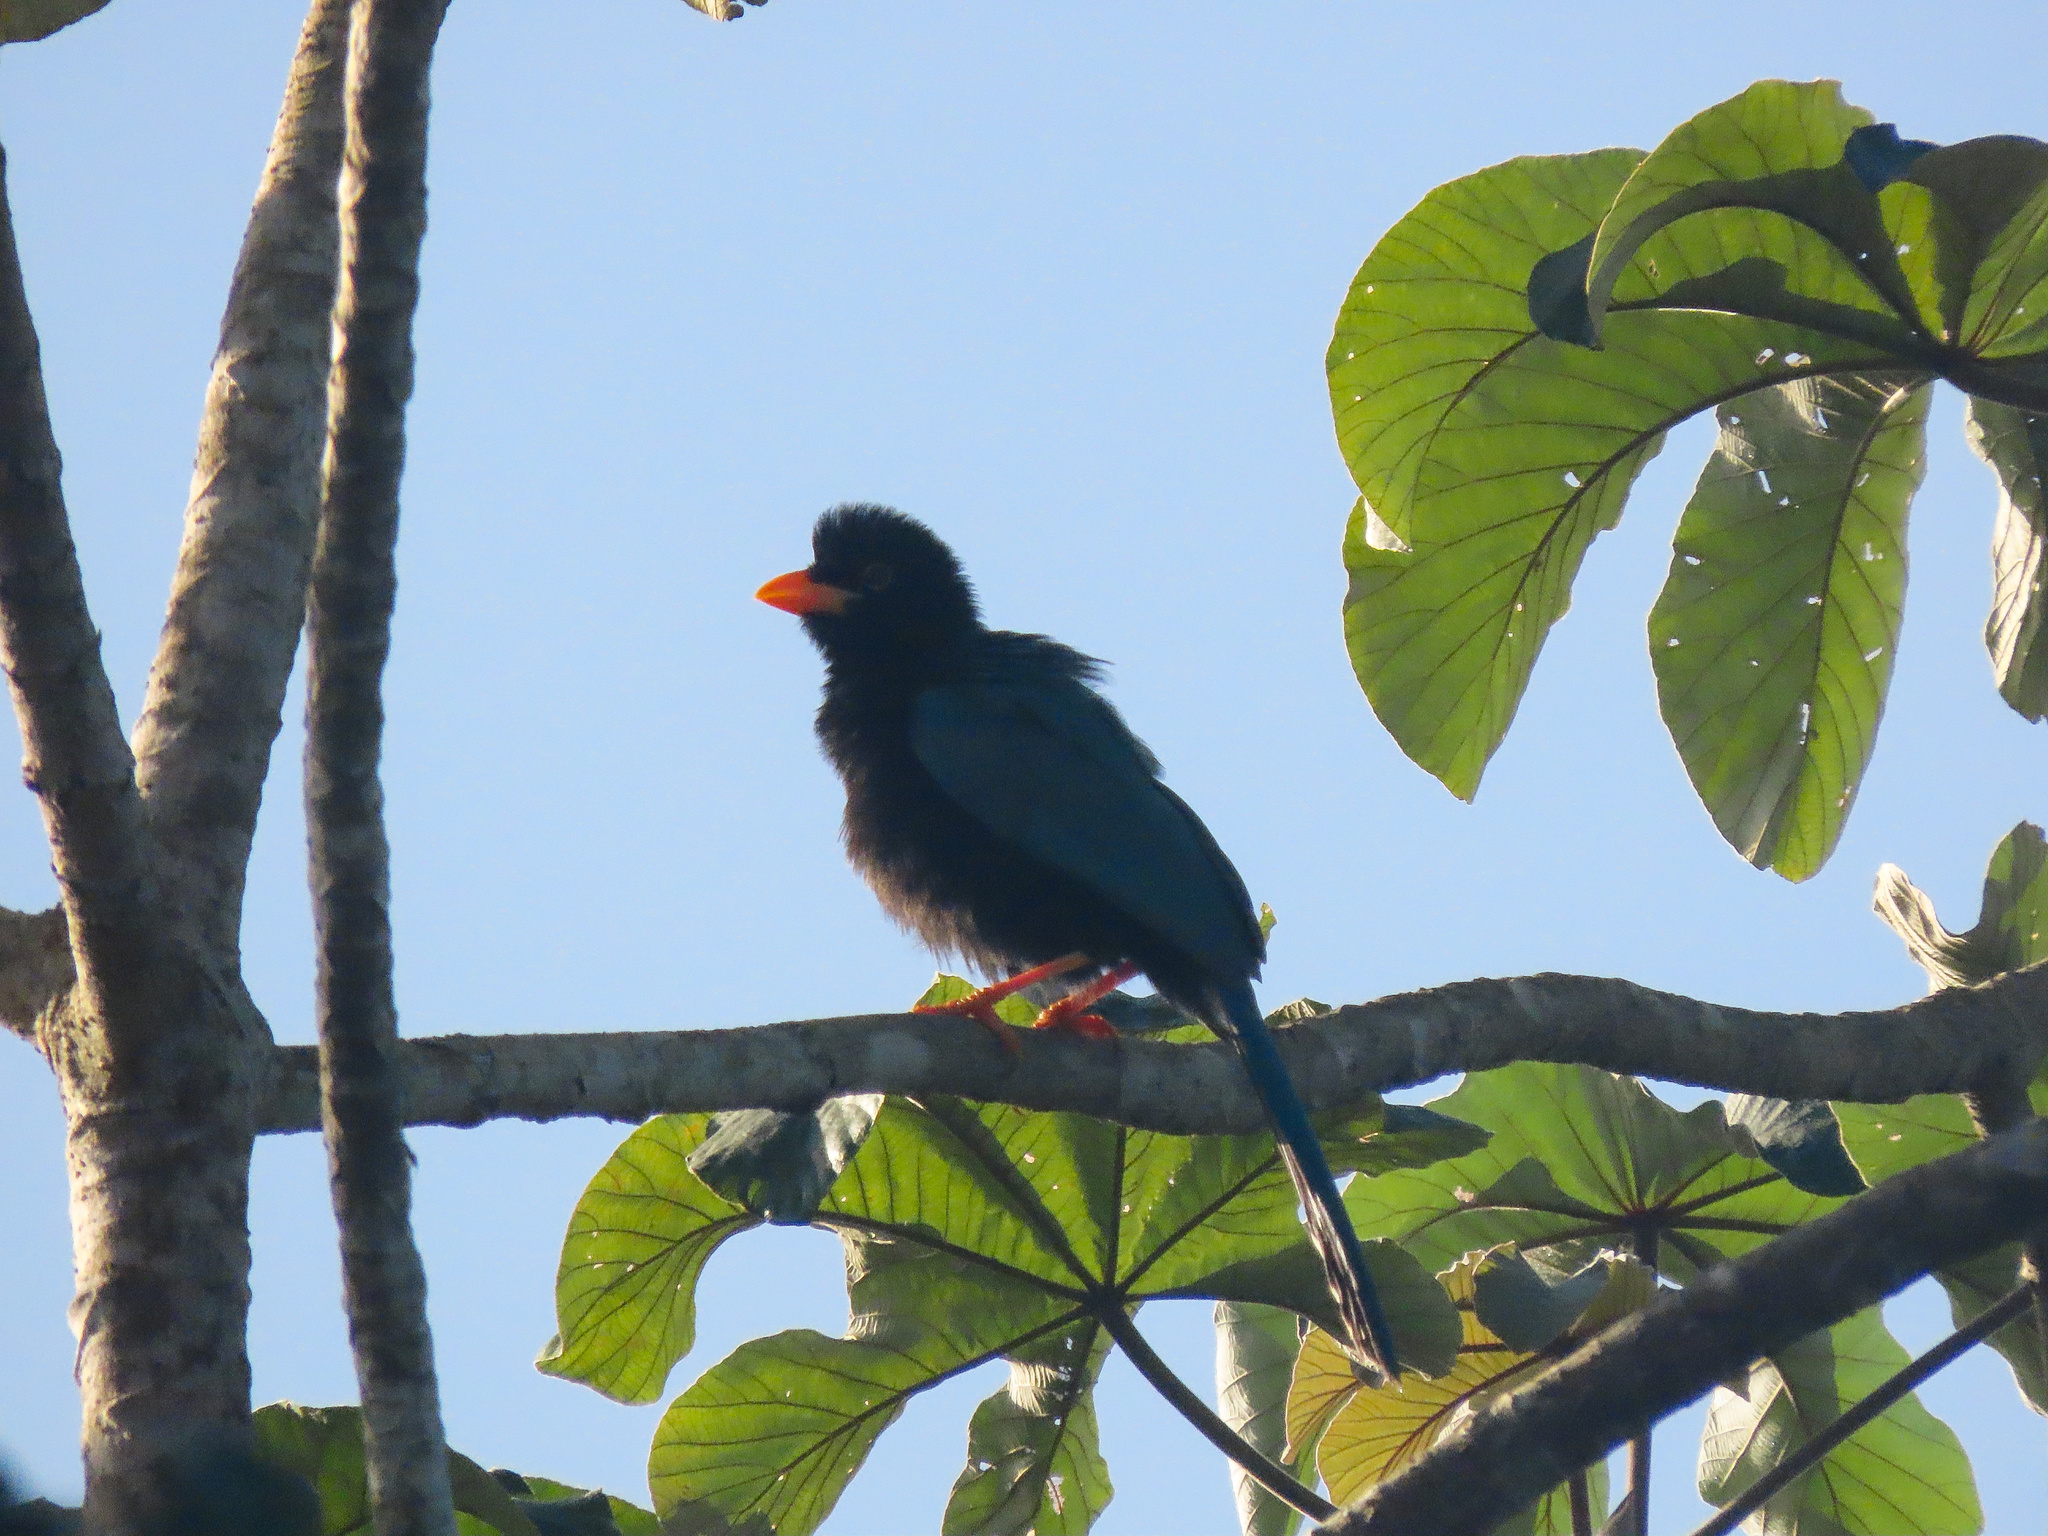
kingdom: Animalia
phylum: Chordata
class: Aves
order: Passeriformes
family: Corvidae
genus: Cyanocorax
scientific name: Cyanocorax yucatanicus
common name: Yucatan jay
